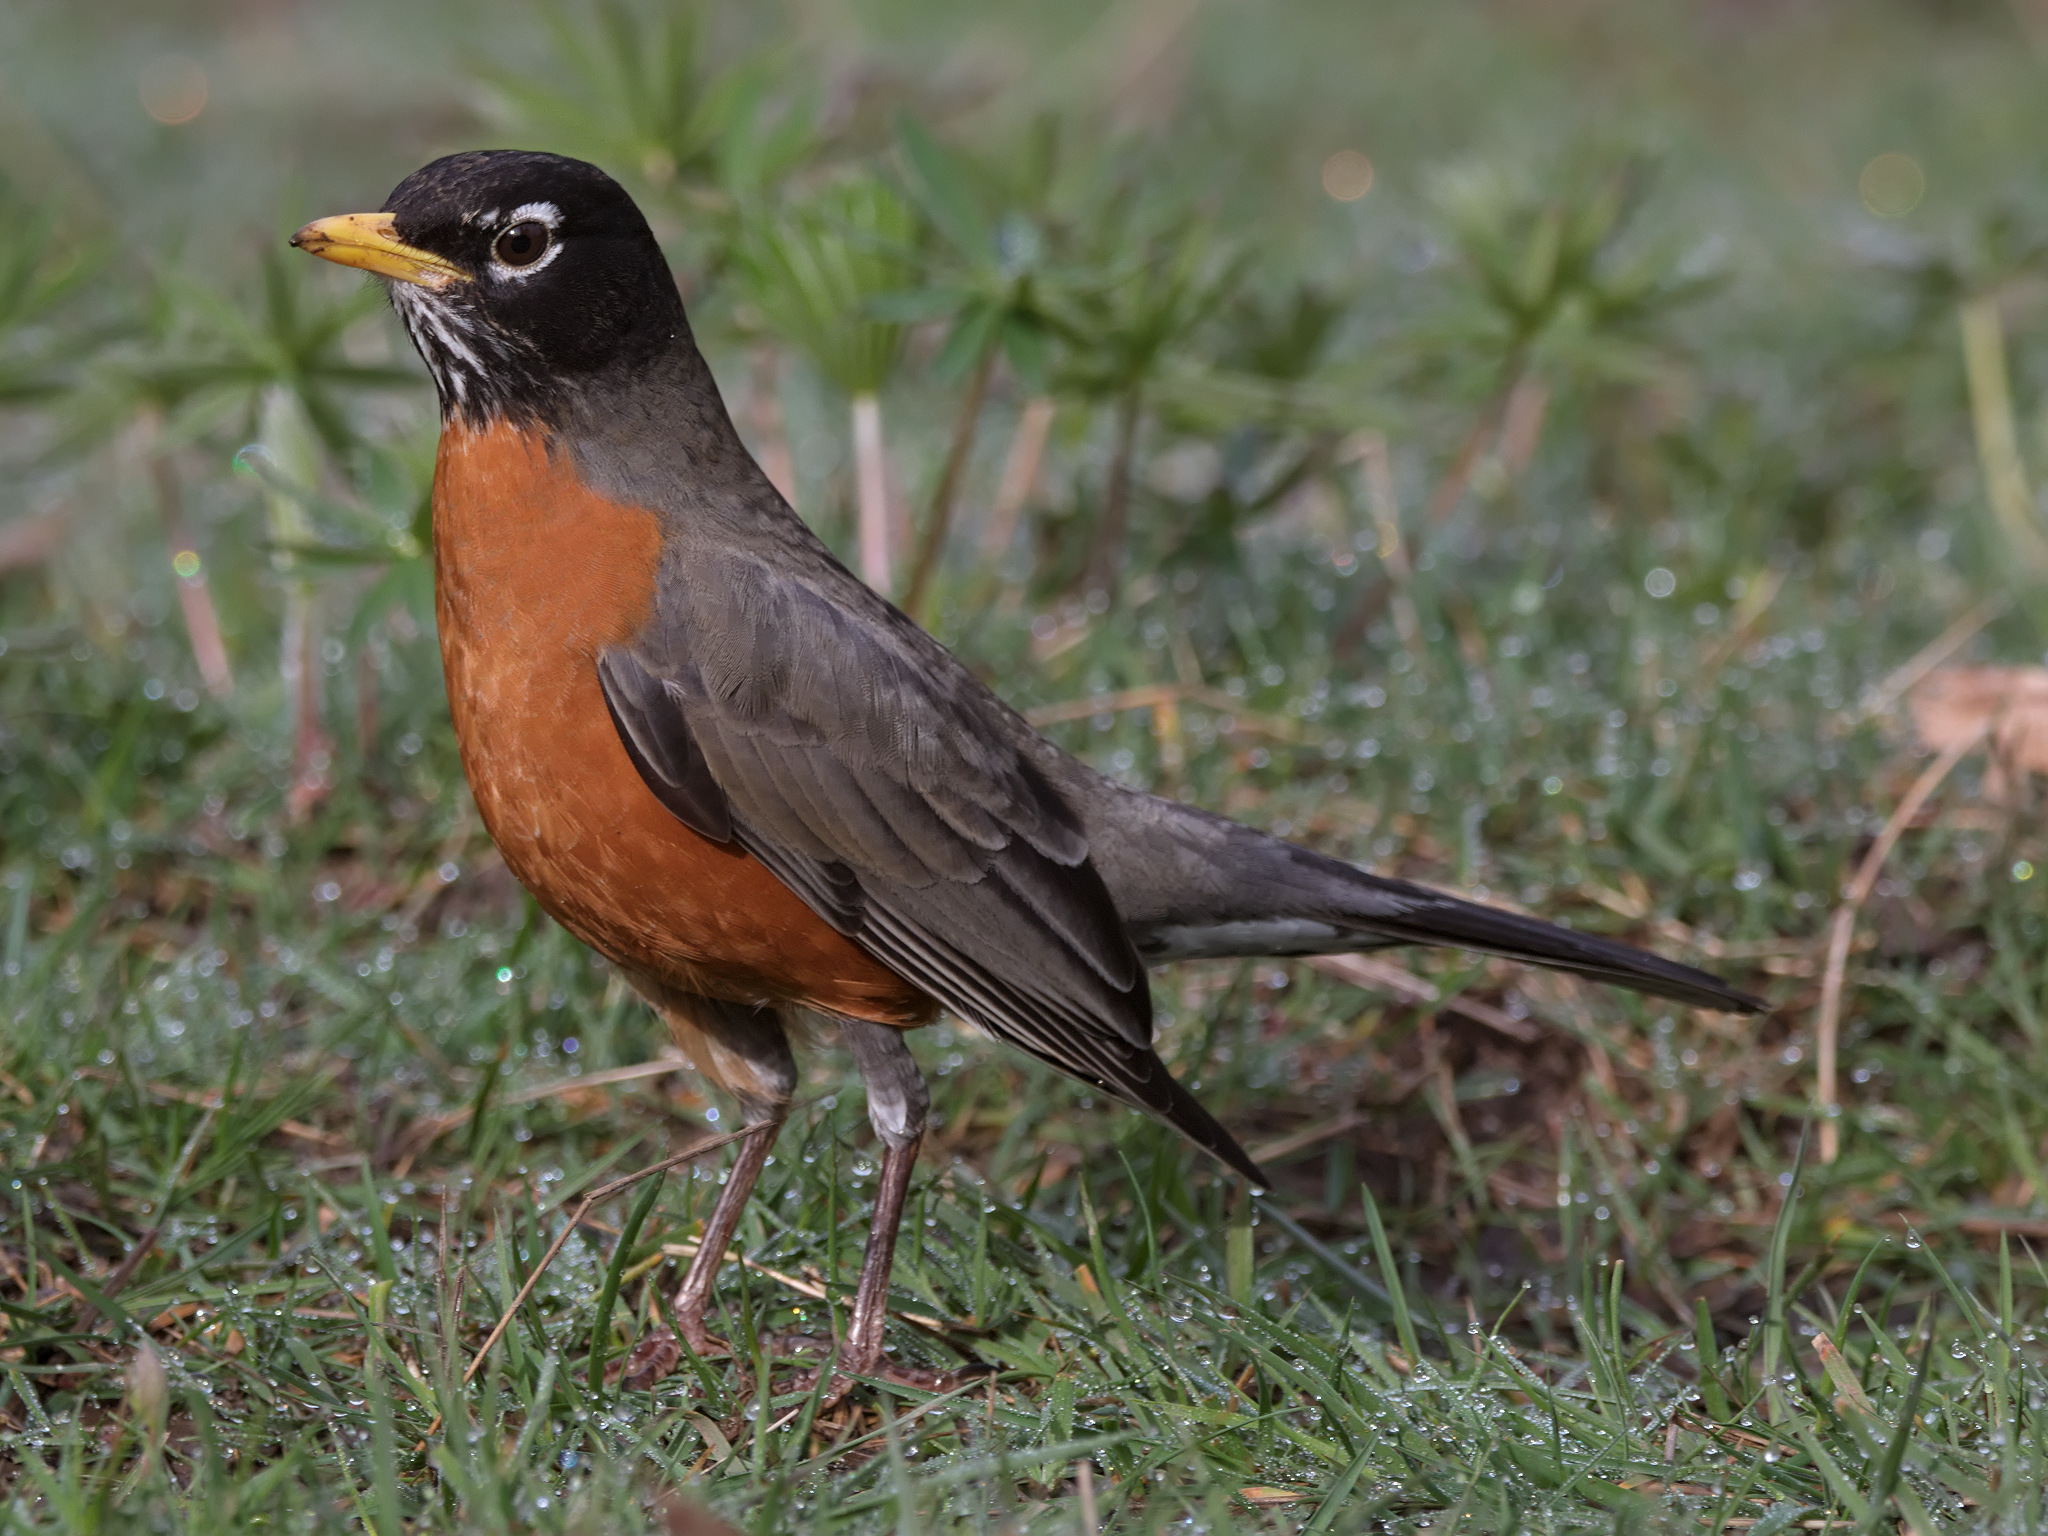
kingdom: Animalia
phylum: Chordata
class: Aves
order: Passeriformes
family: Turdidae
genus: Turdus
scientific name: Turdus migratorius
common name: American robin
